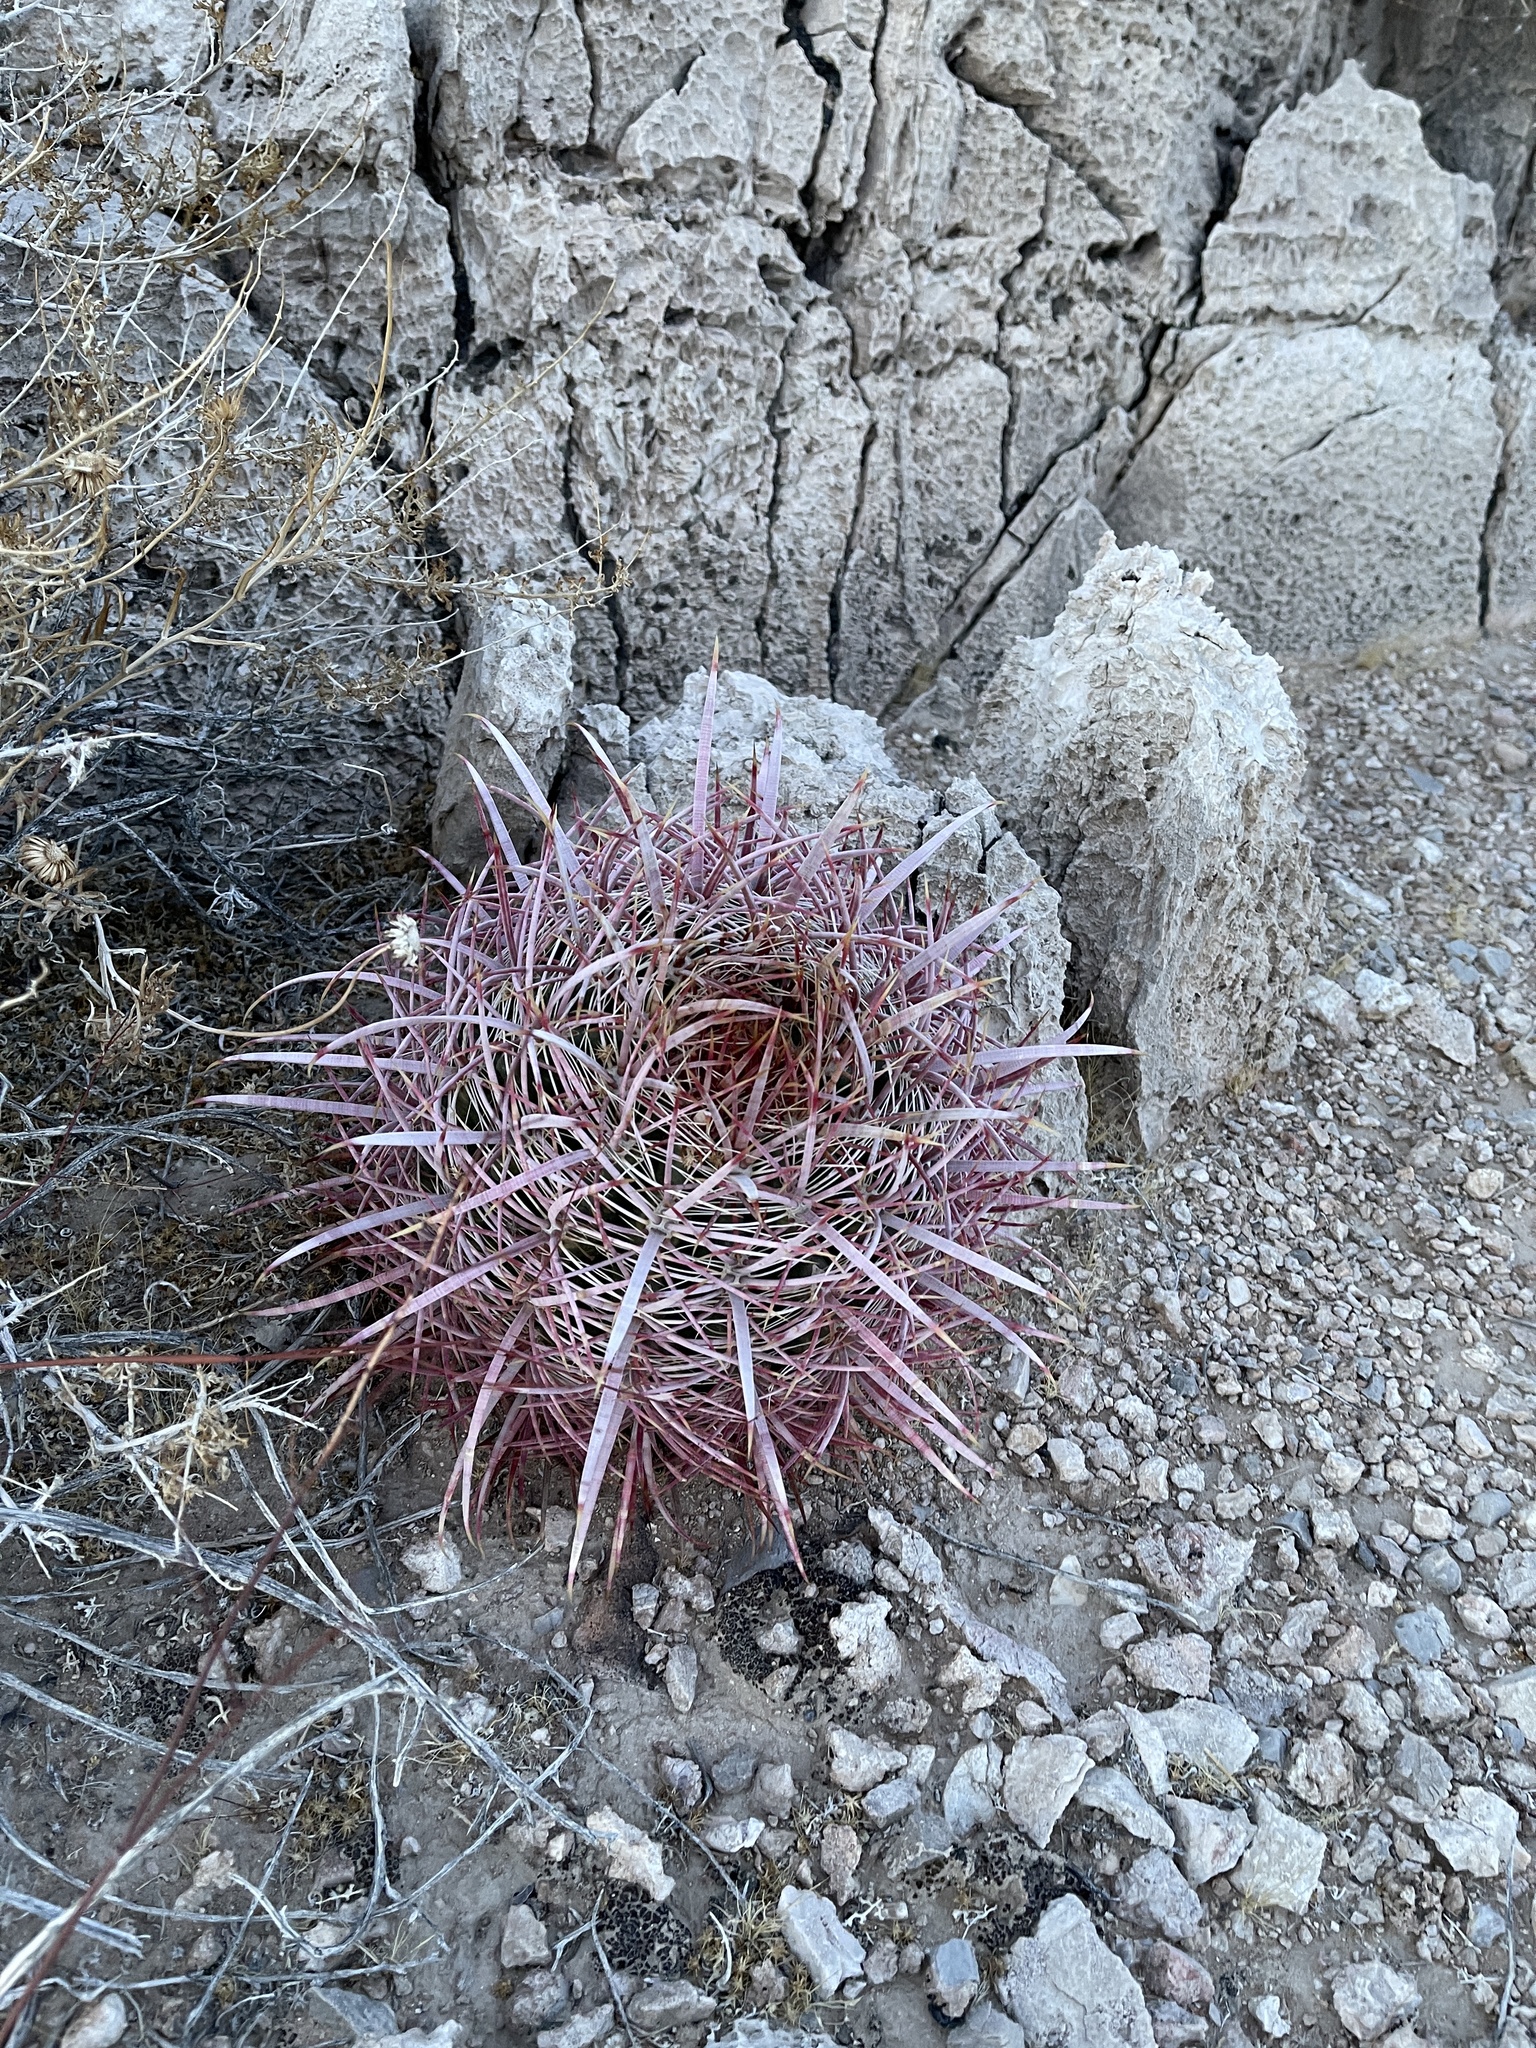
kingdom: Plantae
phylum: Tracheophyta
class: Magnoliopsida
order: Caryophyllales
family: Cactaceae
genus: Ferocactus
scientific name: Ferocactus cylindraceus
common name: California barrel cactus
